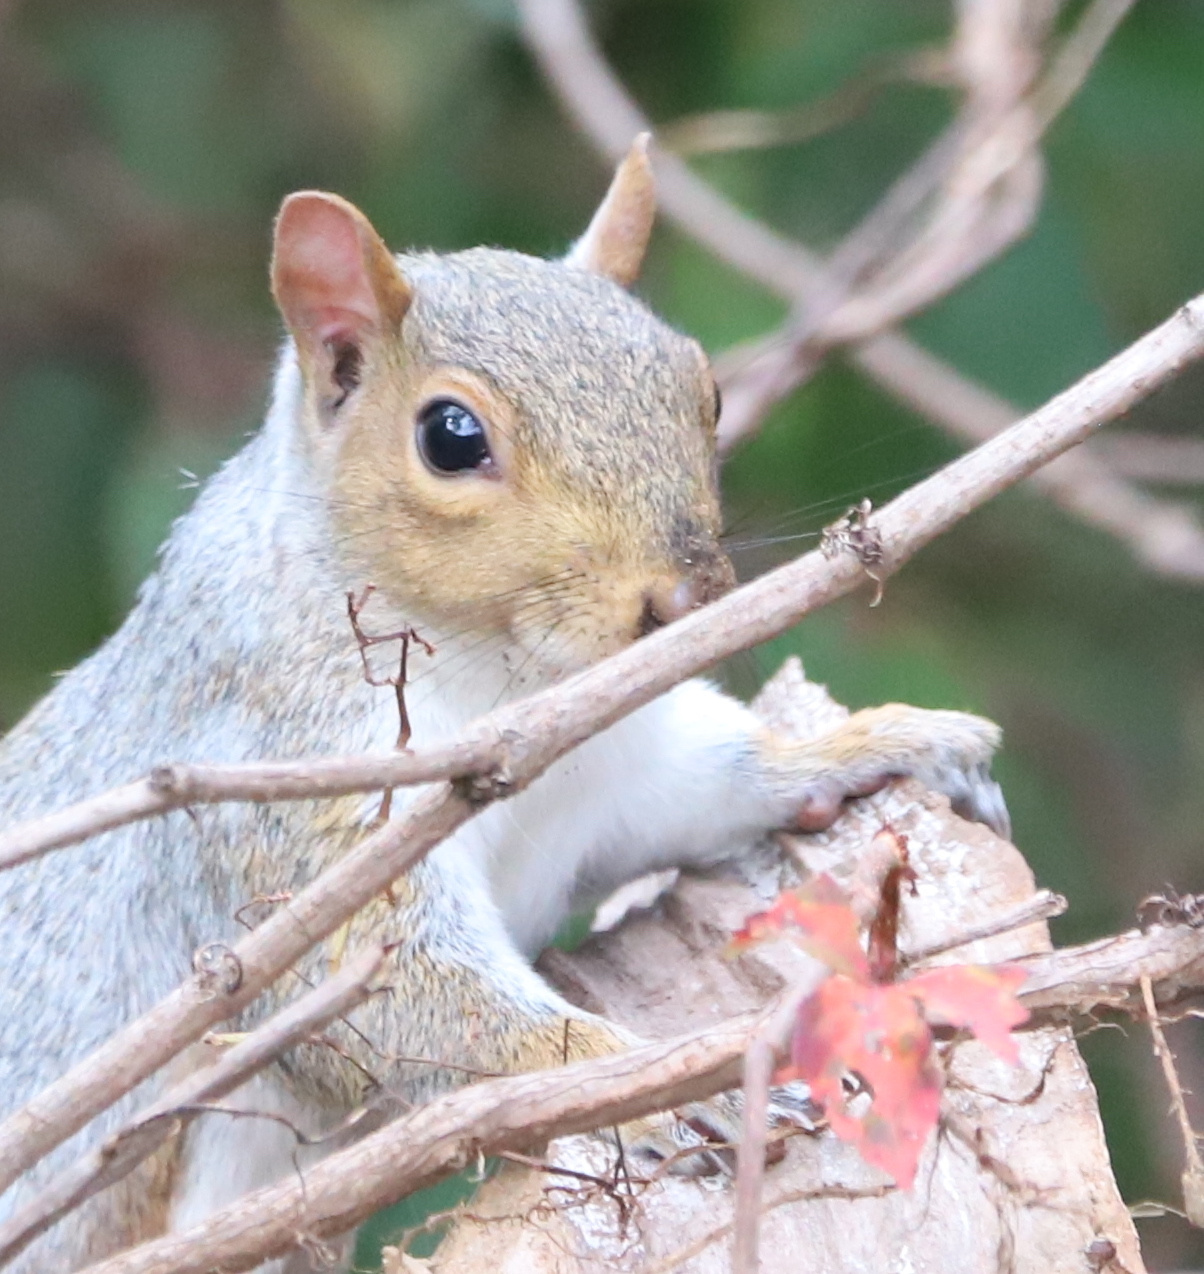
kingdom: Animalia
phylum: Chordata
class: Mammalia
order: Rodentia
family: Sciuridae
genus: Sciurus
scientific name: Sciurus carolinensis
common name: Eastern gray squirrel
